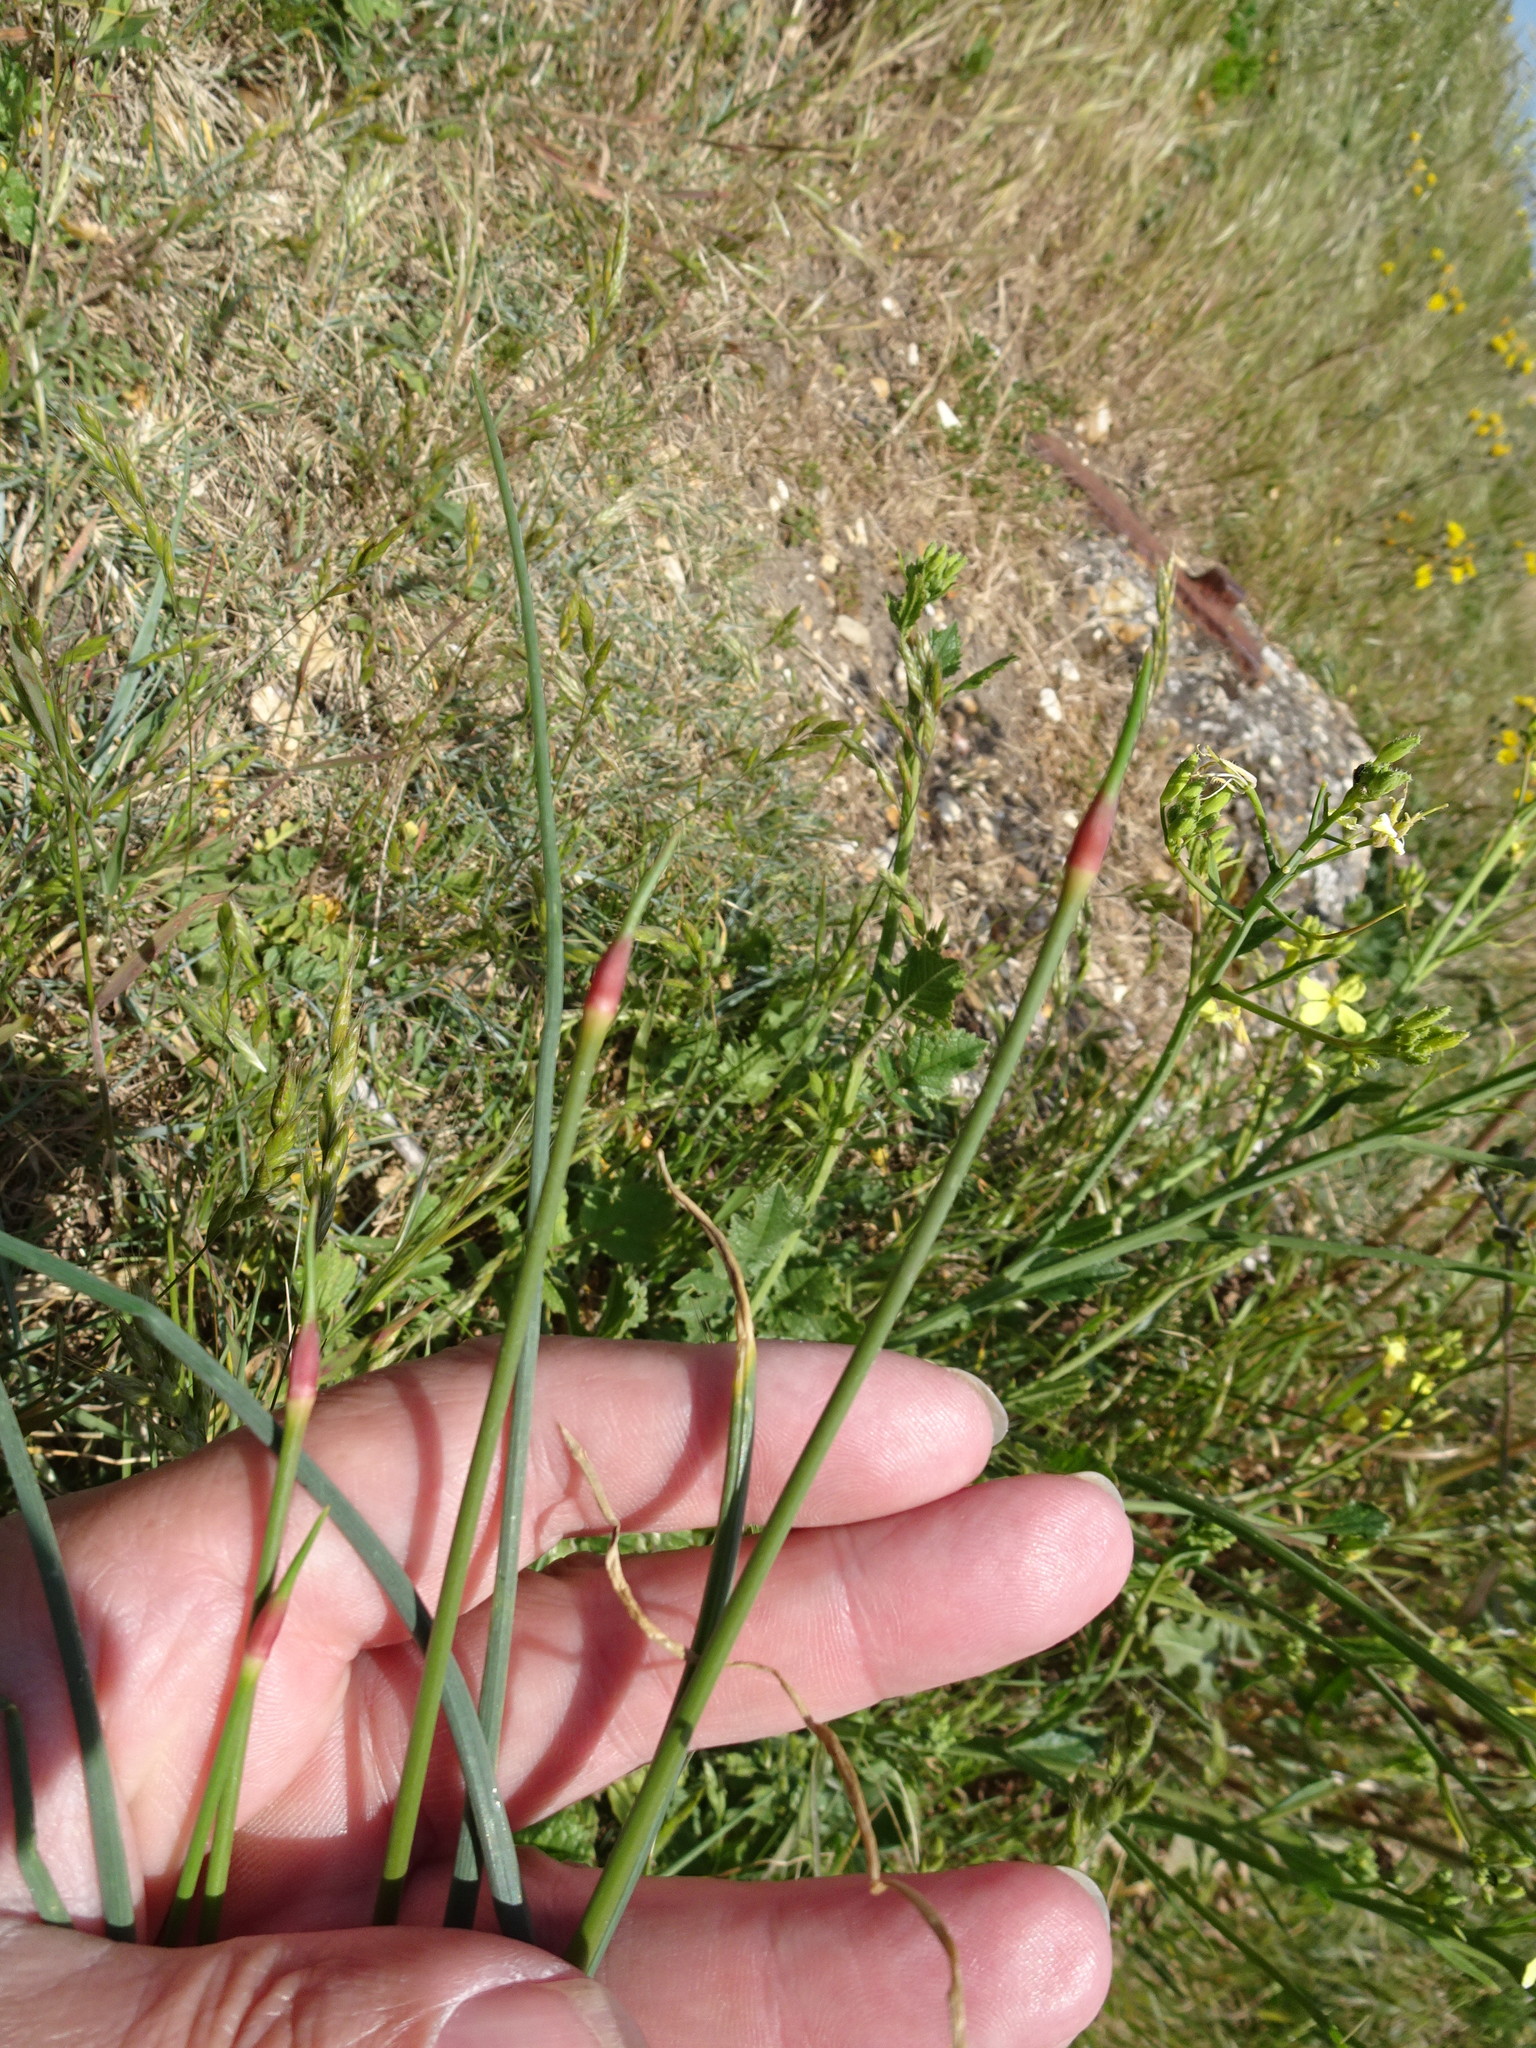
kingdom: Plantae
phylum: Tracheophyta
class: Liliopsida
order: Asparagales
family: Amaryllidaceae
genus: Allium
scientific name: Allium vineale
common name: Crow garlic
